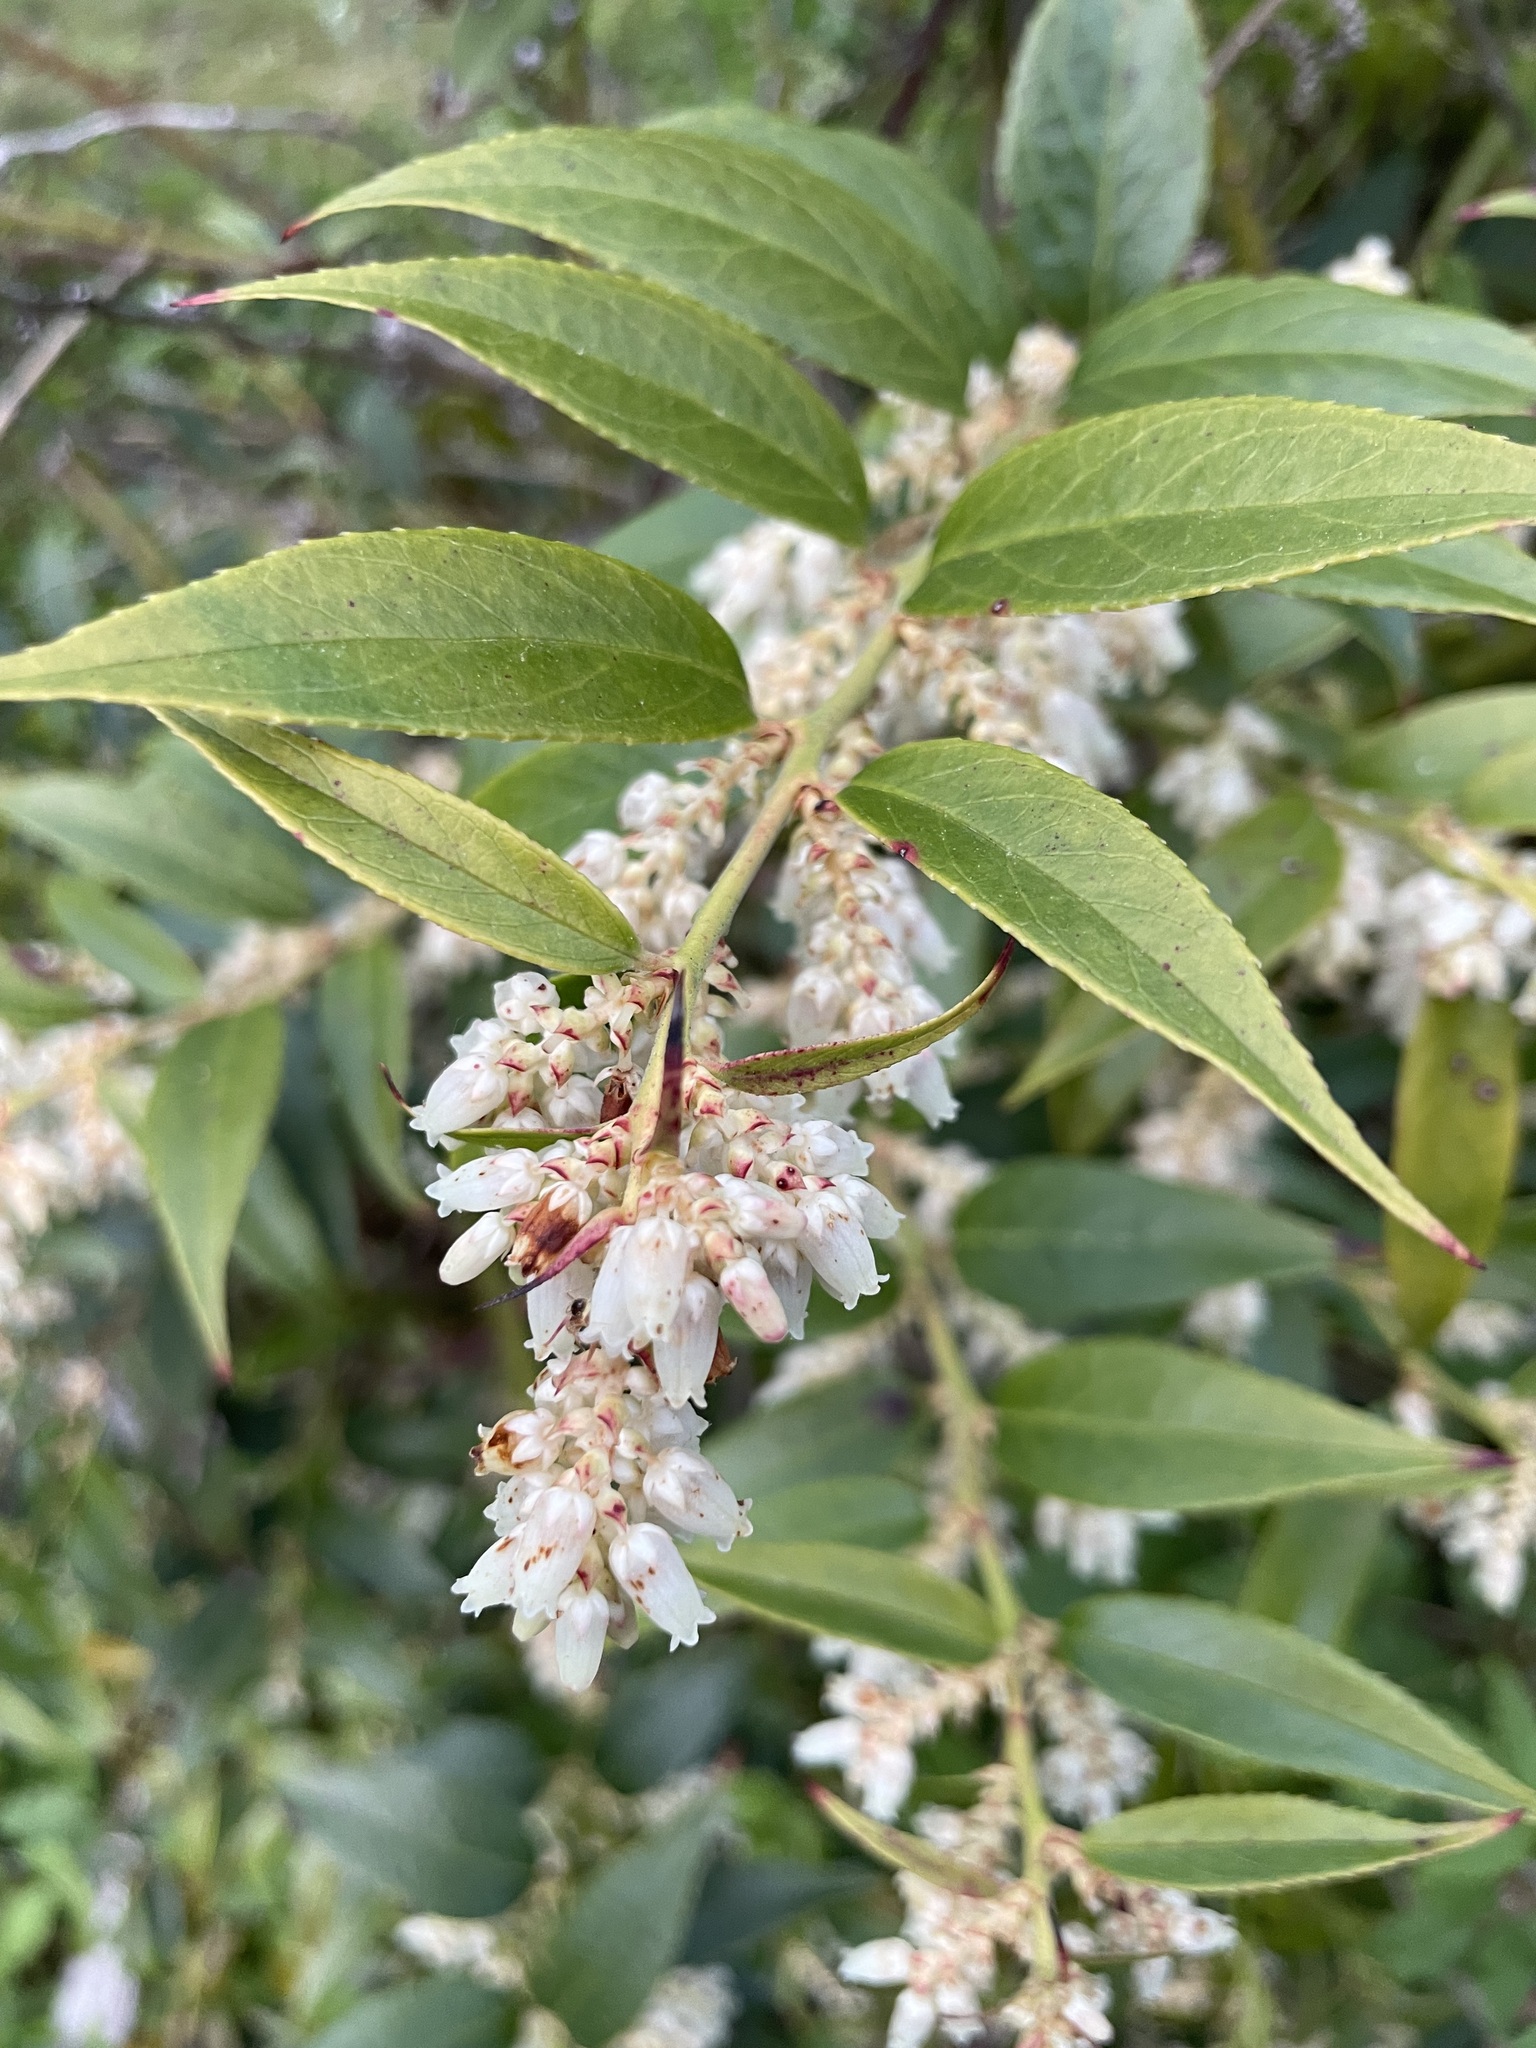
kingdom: Plantae
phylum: Tracheophyta
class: Magnoliopsida
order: Ericales
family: Ericaceae
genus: Leucothoe
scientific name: Leucothoe fontanesiana
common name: Fetterbush
